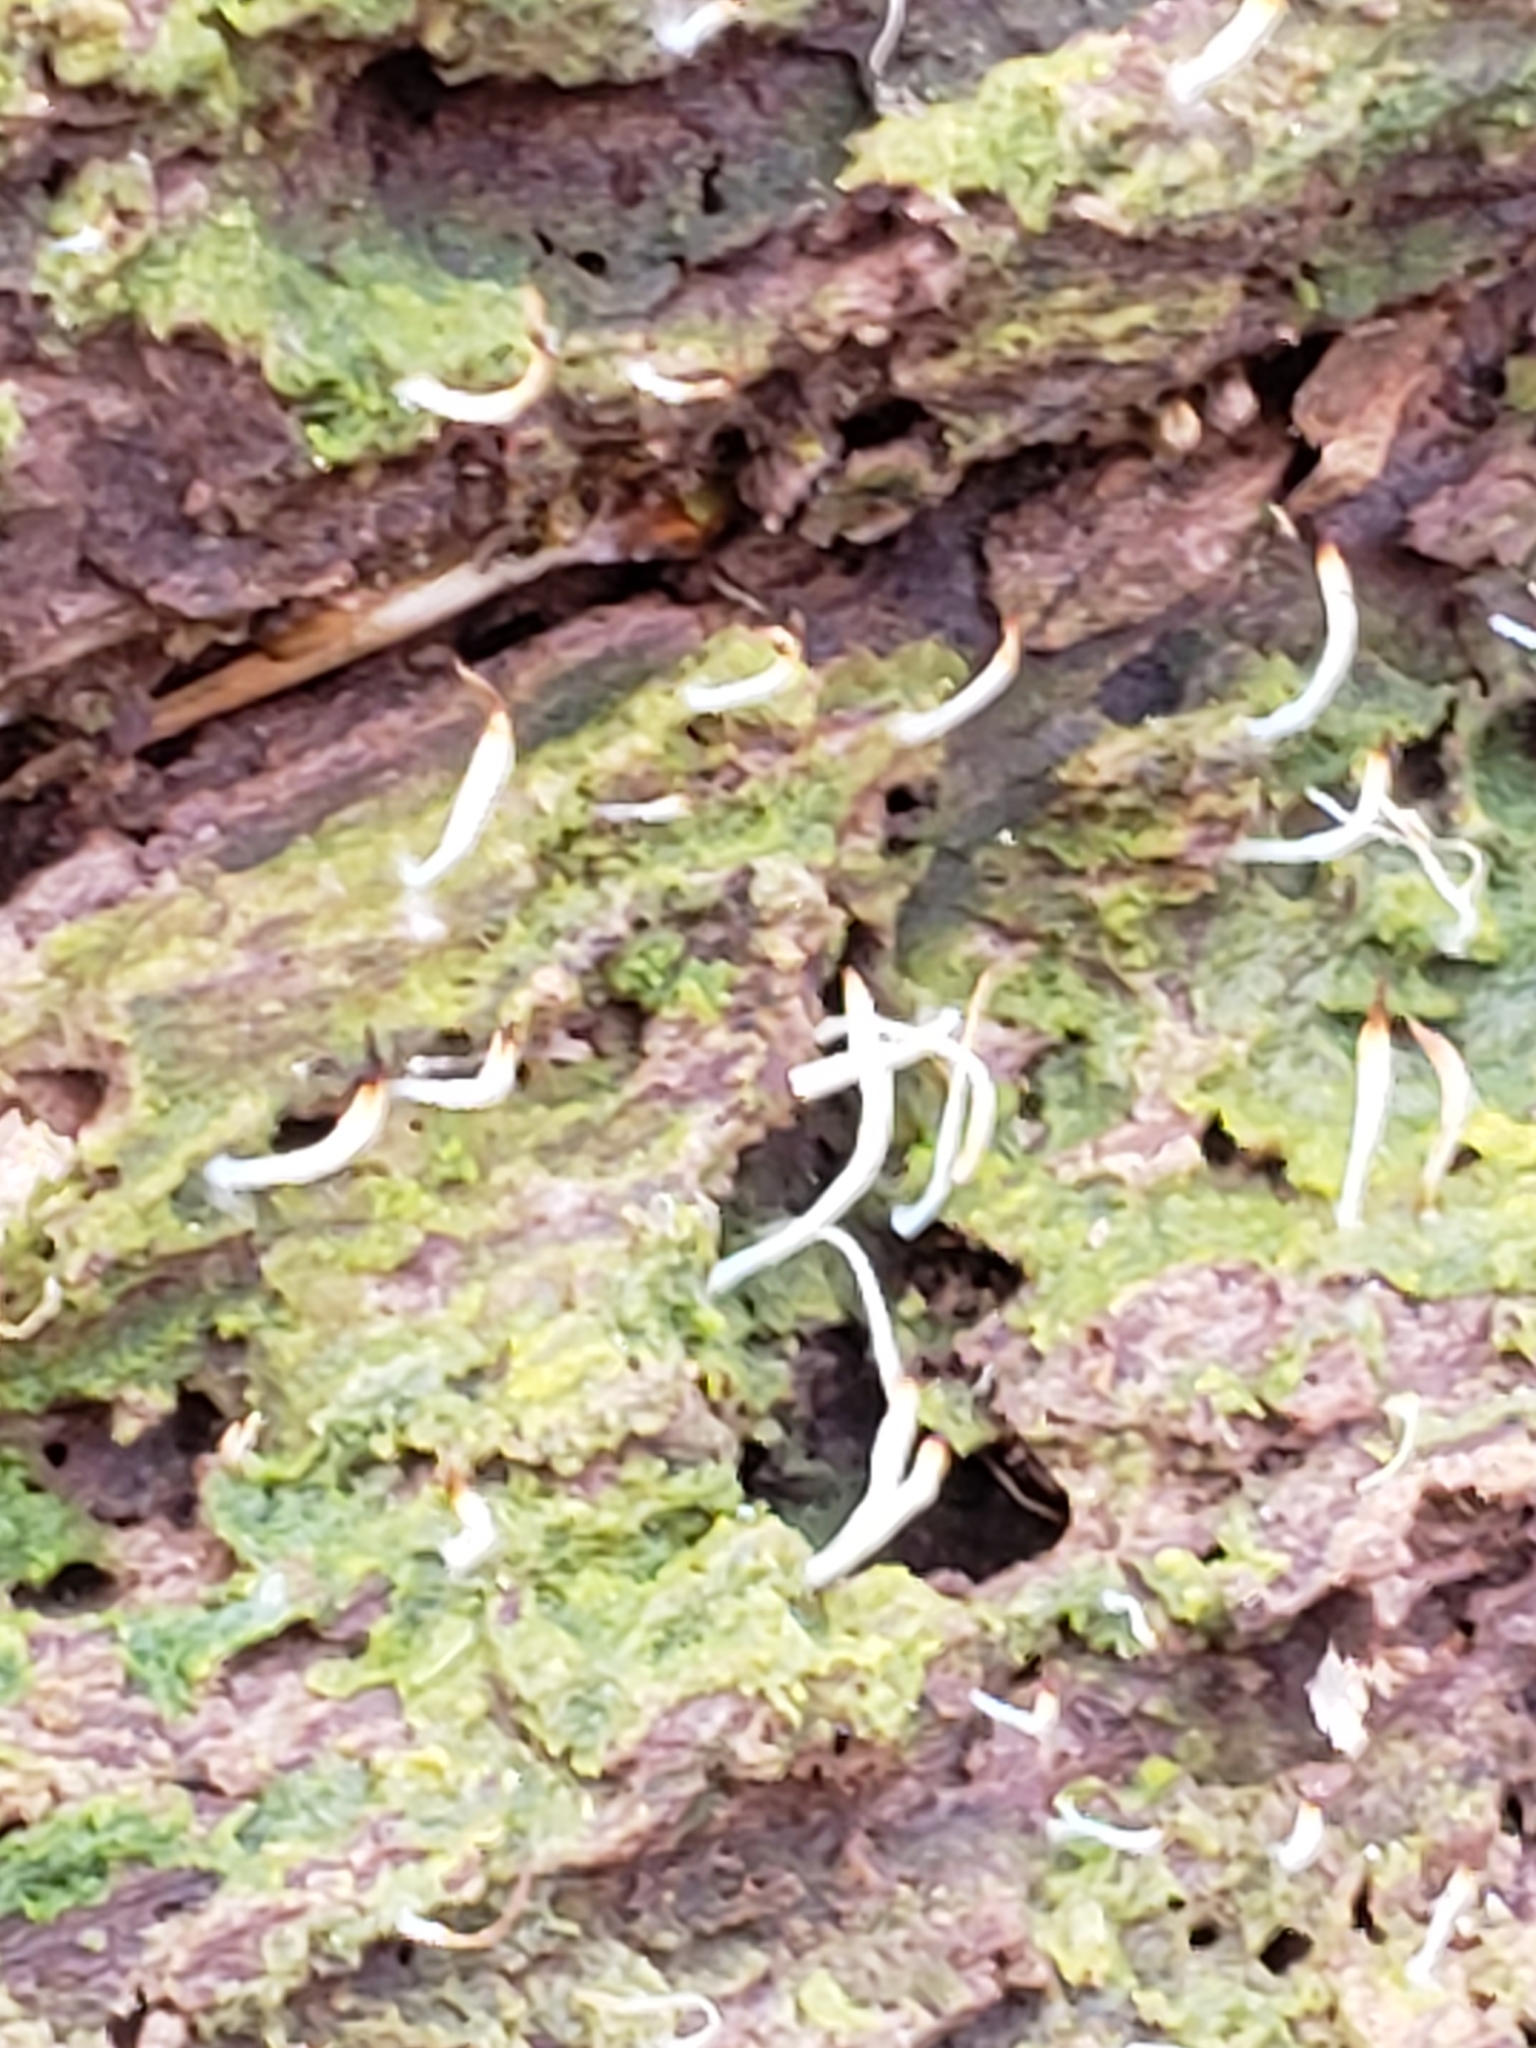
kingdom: Fungi
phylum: Basidiomycota
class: Agaricomycetes
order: Cantharellales
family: Hydnaceae
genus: Multiclavula
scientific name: Multiclavula mucida
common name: White green-algae coral
